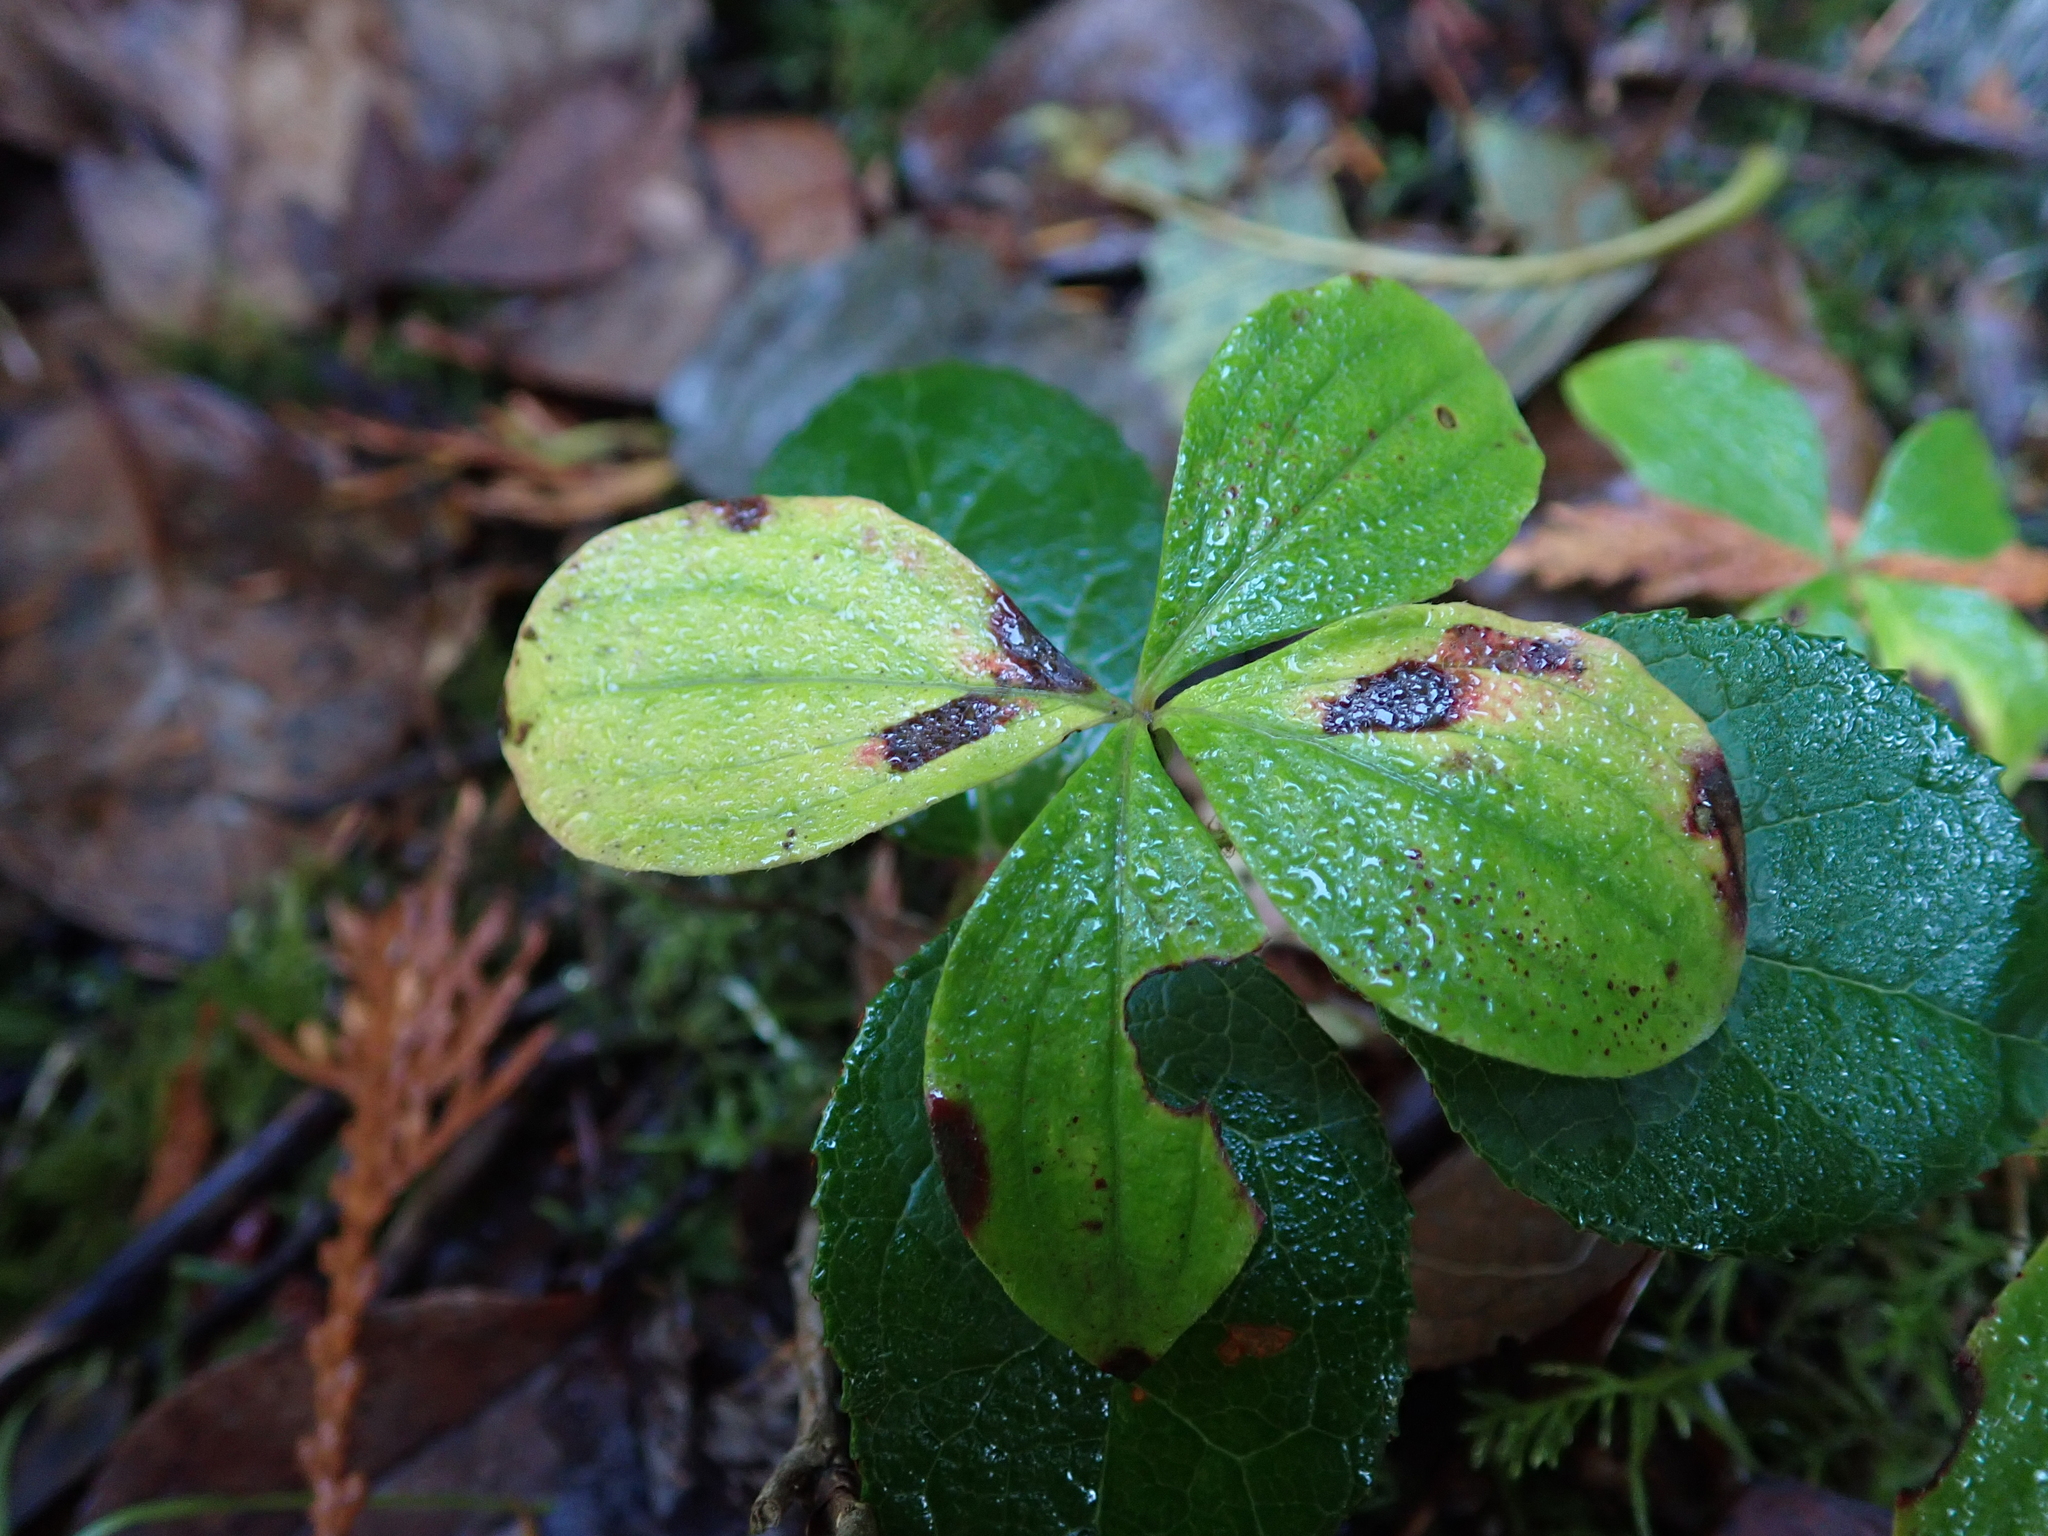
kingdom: Plantae
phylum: Tracheophyta
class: Magnoliopsida
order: Cornales
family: Cornaceae
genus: Cornus
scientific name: Cornus unalaschkensis
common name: Alaska bunchberry
